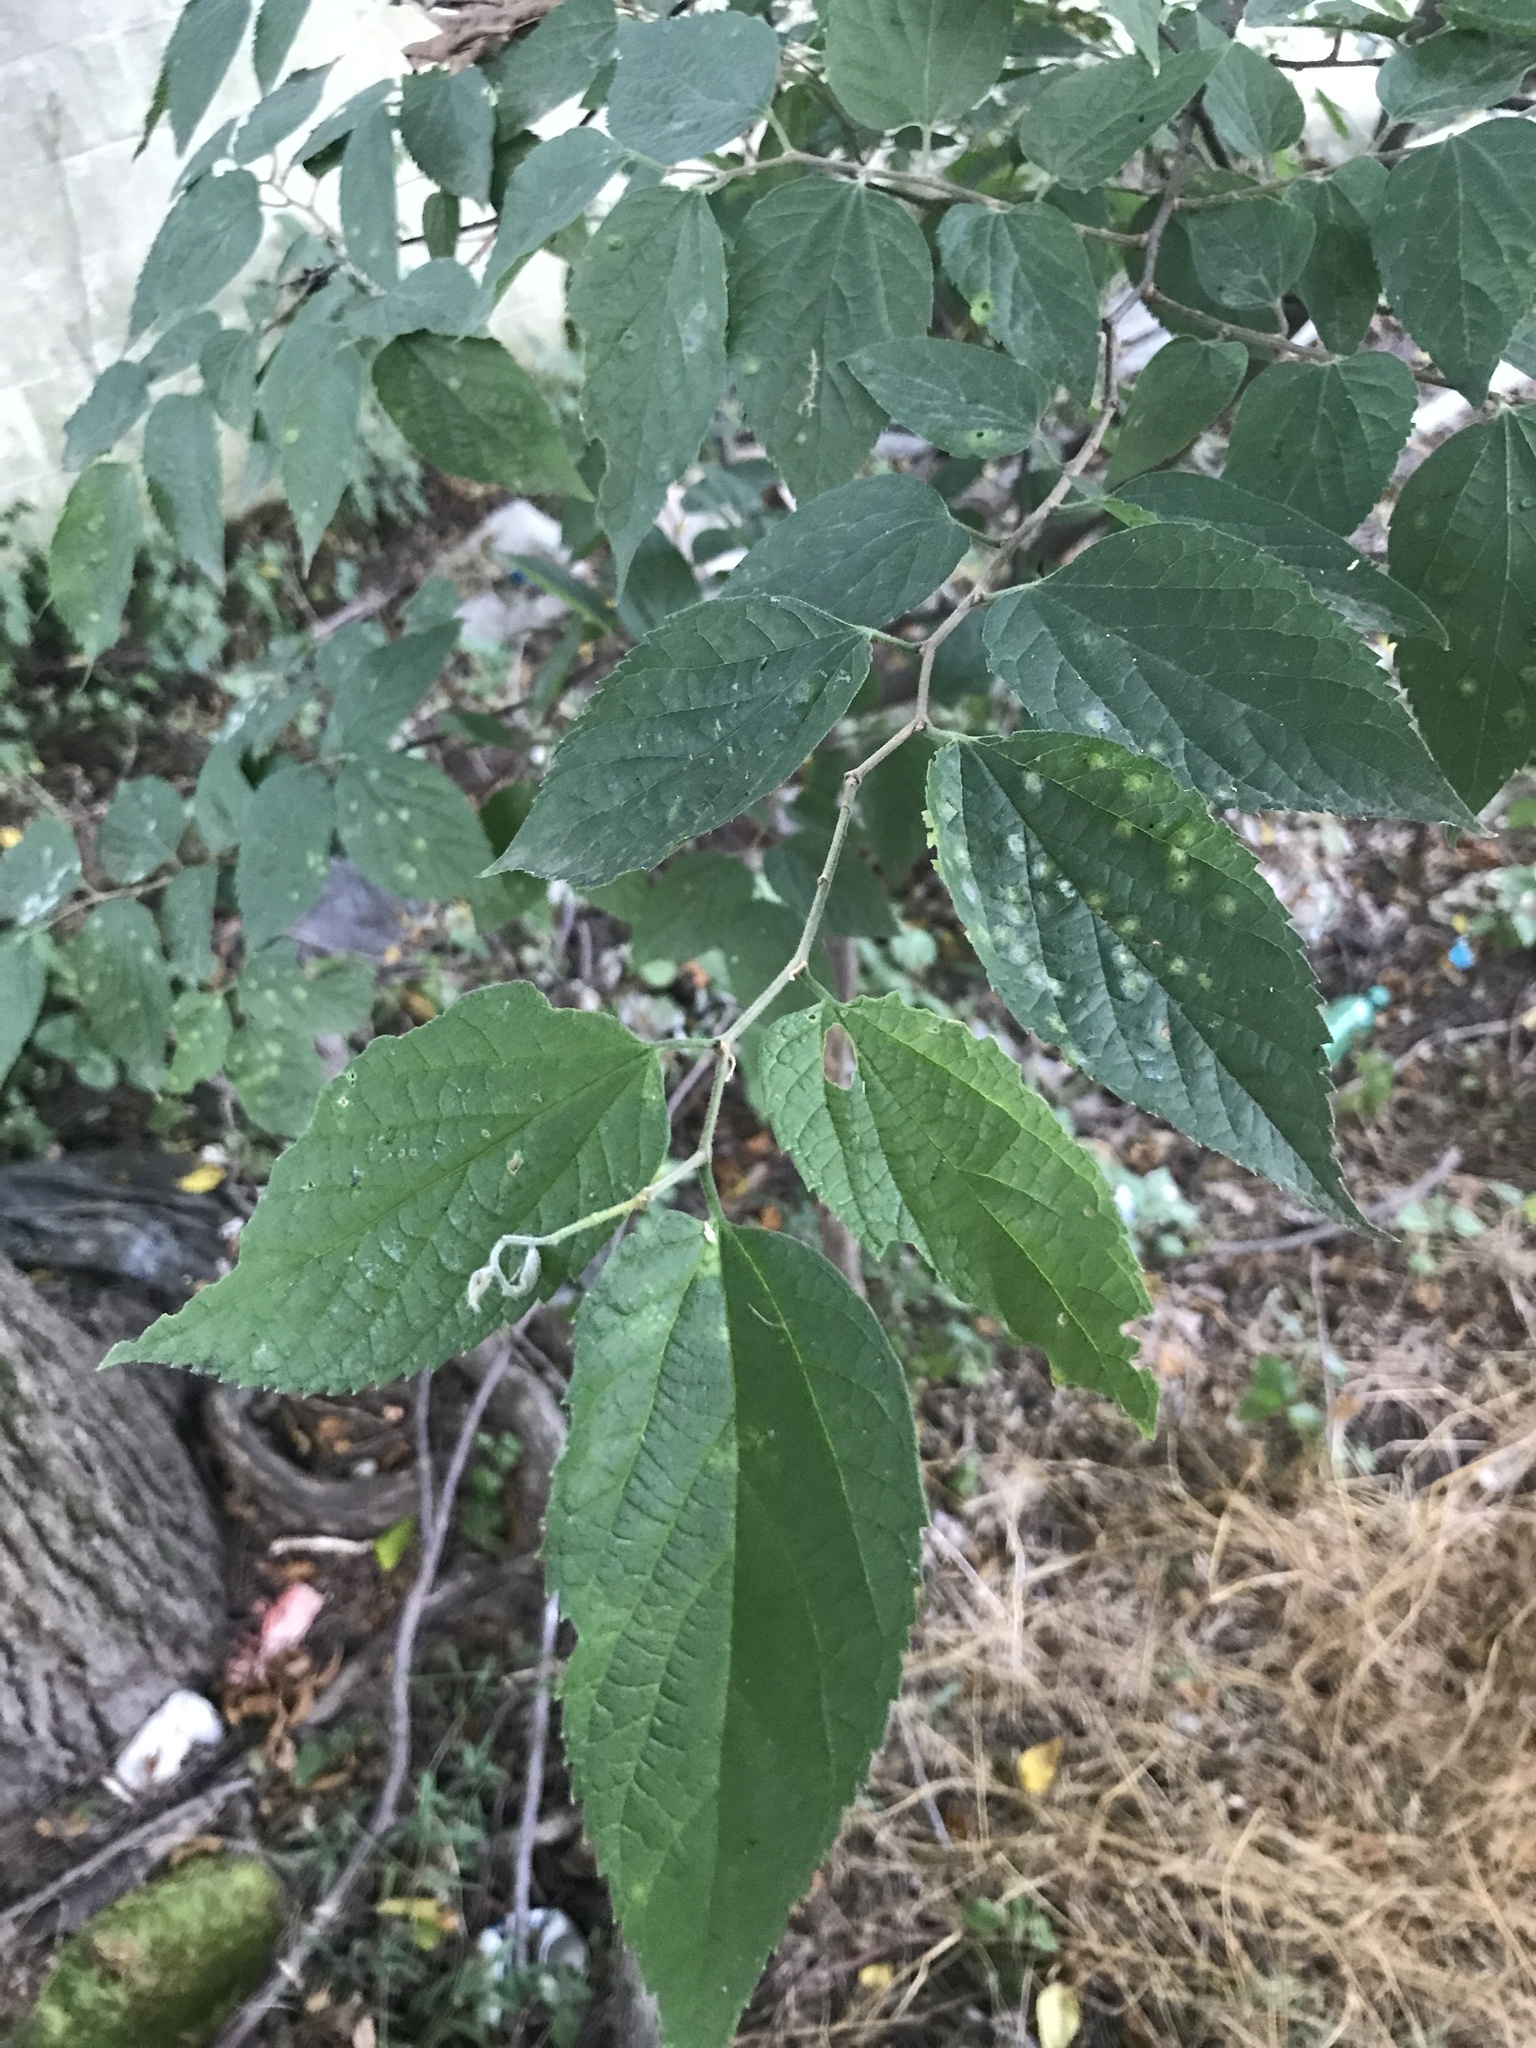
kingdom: Plantae
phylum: Tracheophyta
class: Magnoliopsida
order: Rosales
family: Cannabaceae
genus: Celtis
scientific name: Celtis occidentalis
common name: Common hackberry
